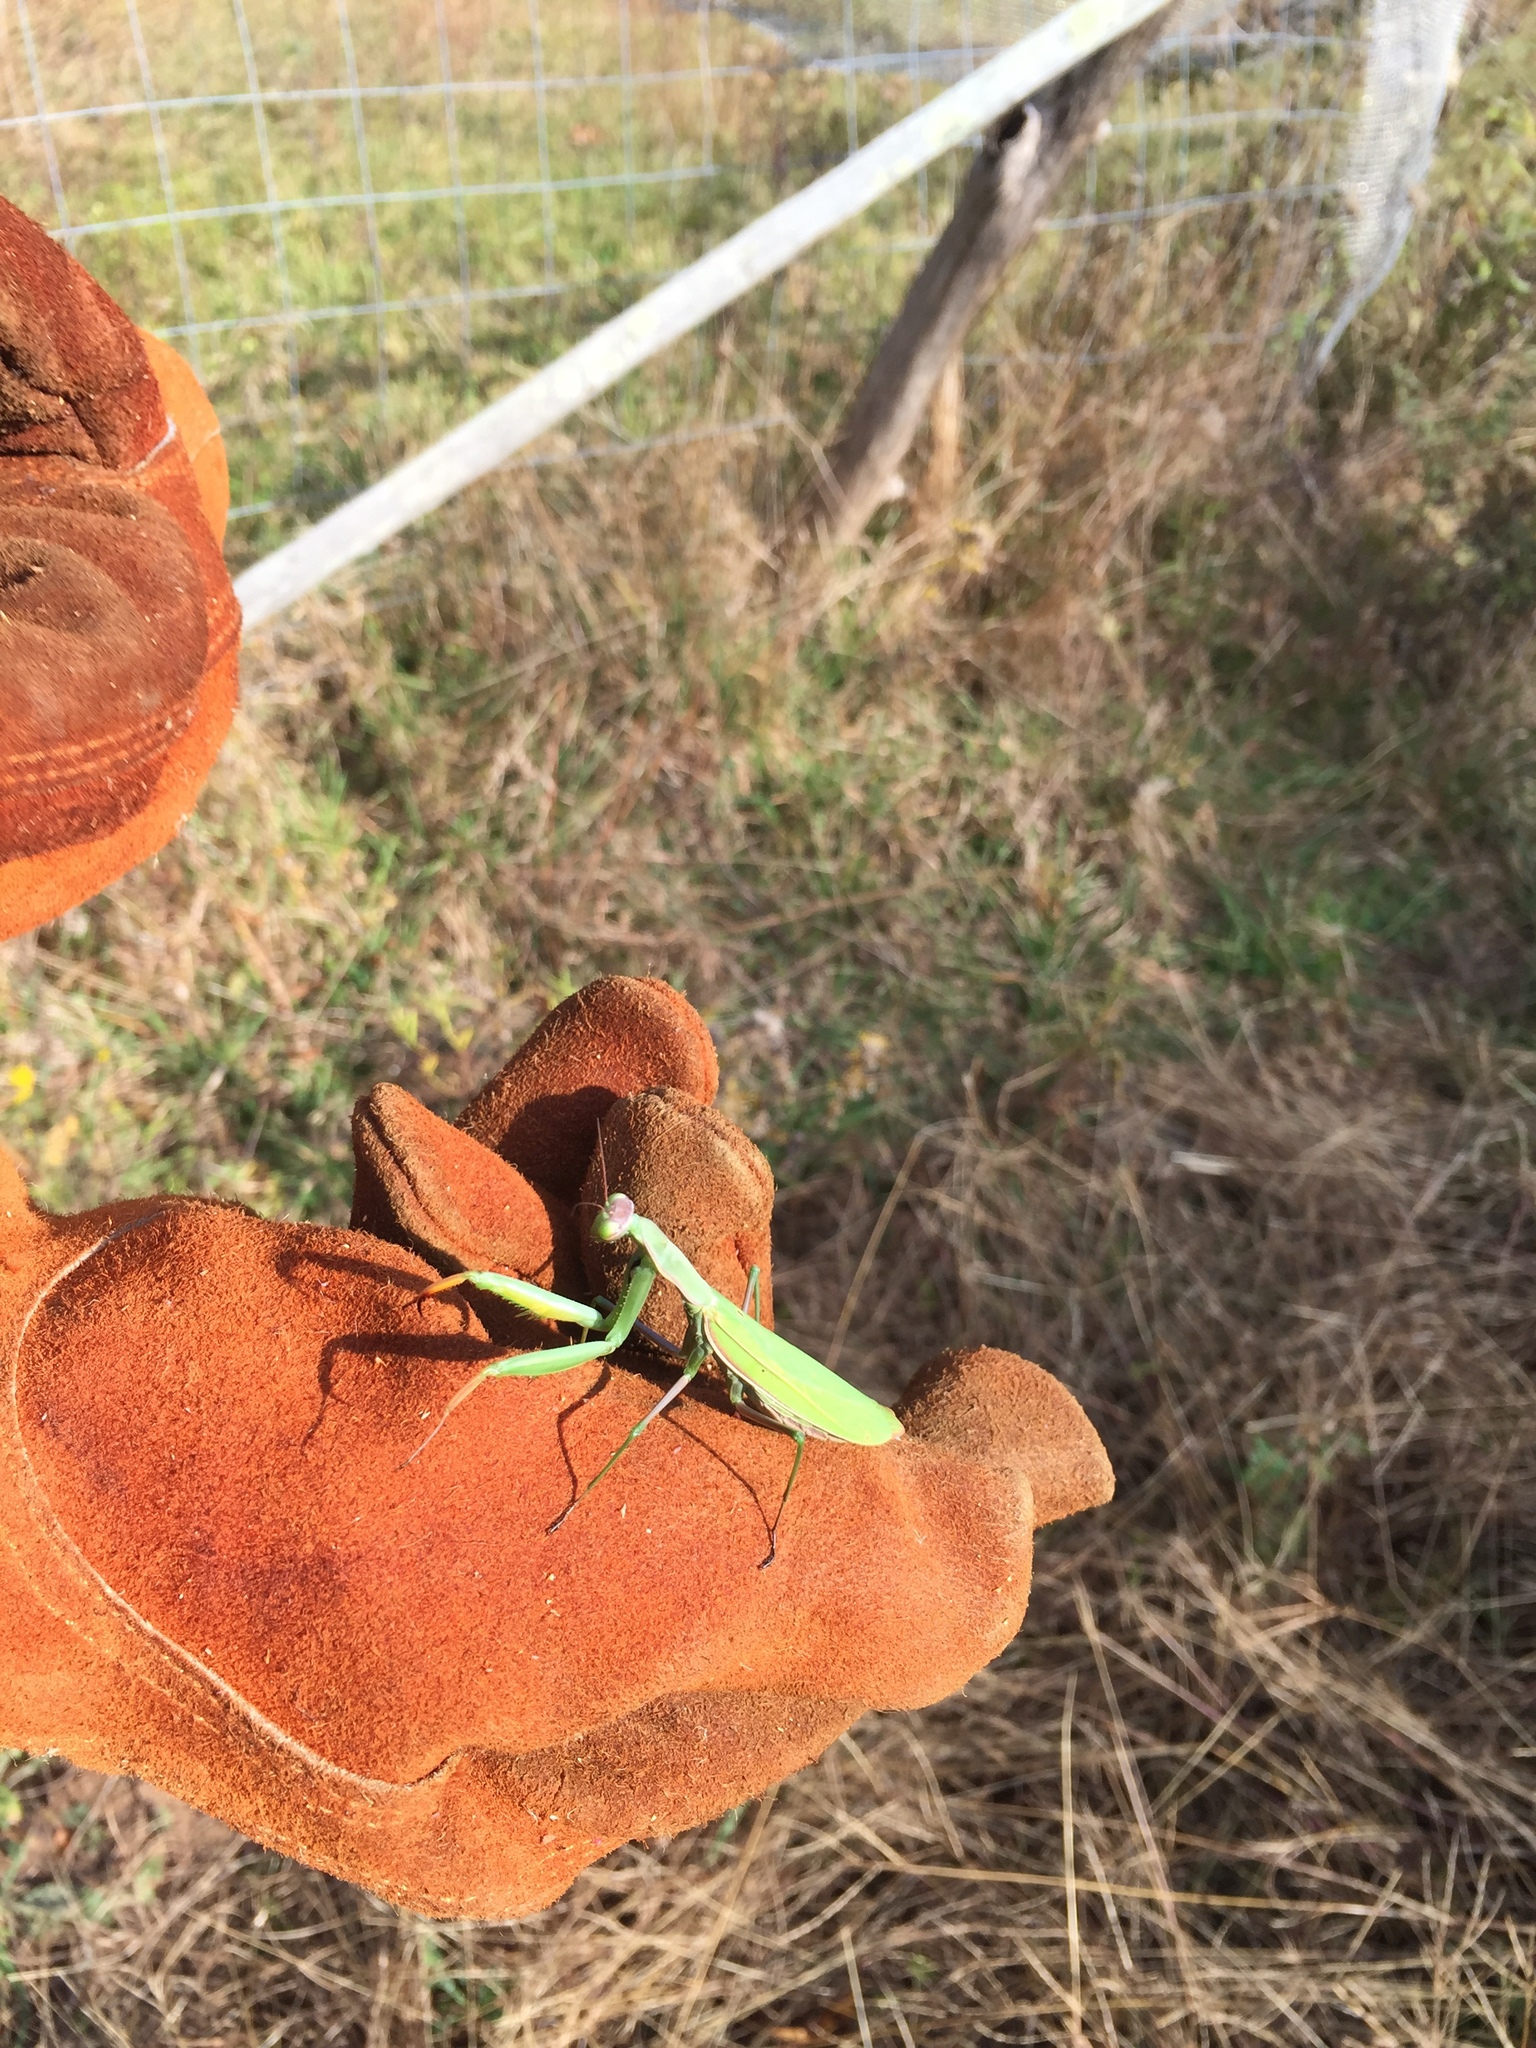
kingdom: Animalia
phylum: Arthropoda
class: Insecta
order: Mantodea
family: Mantidae
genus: Mantis
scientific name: Mantis religiosa
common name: Praying mantis
